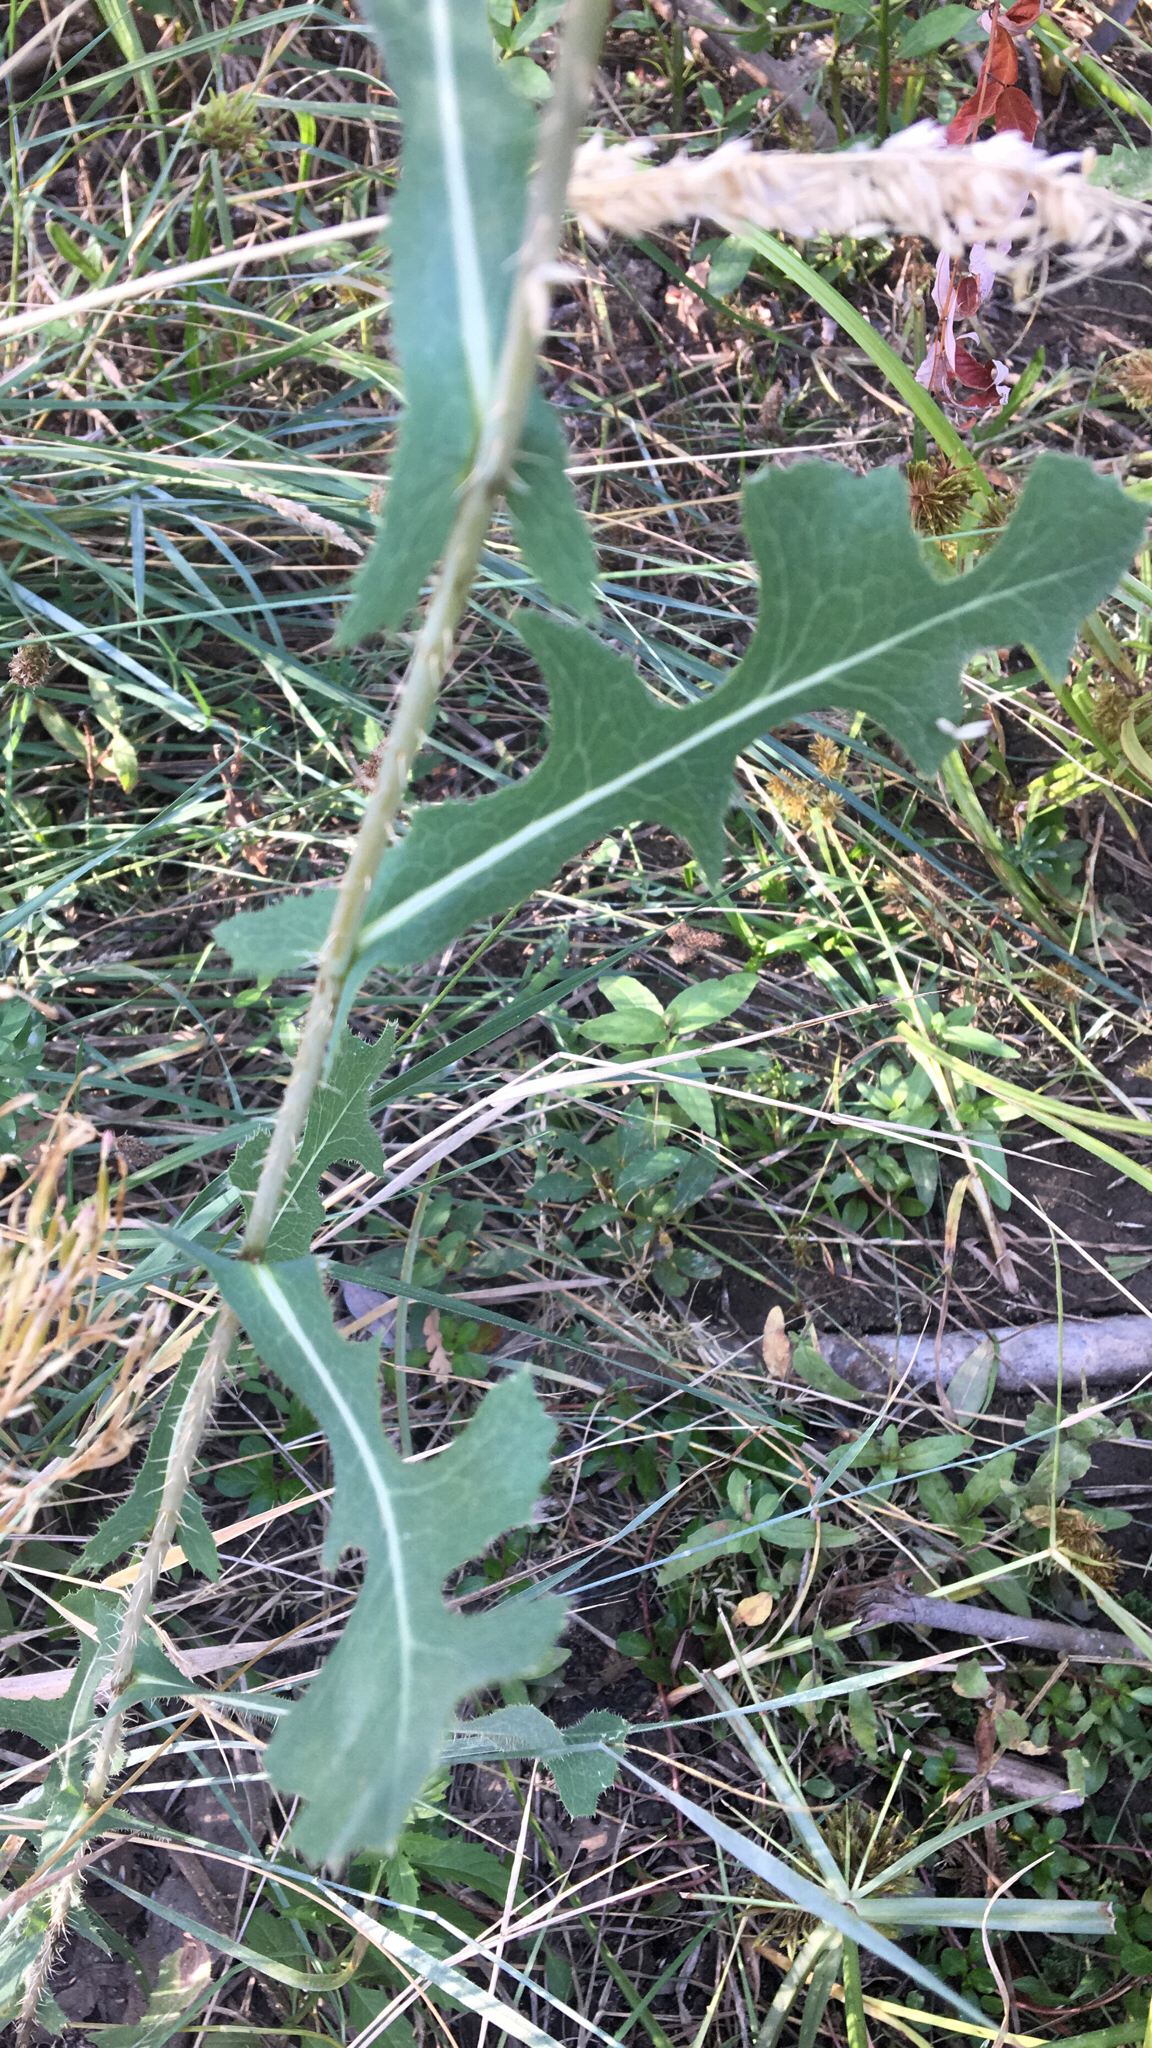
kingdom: Plantae
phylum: Tracheophyta
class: Magnoliopsida
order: Asterales
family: Asteraceae
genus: Lactuca
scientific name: Lactuca serriola
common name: Prickly lettuce
